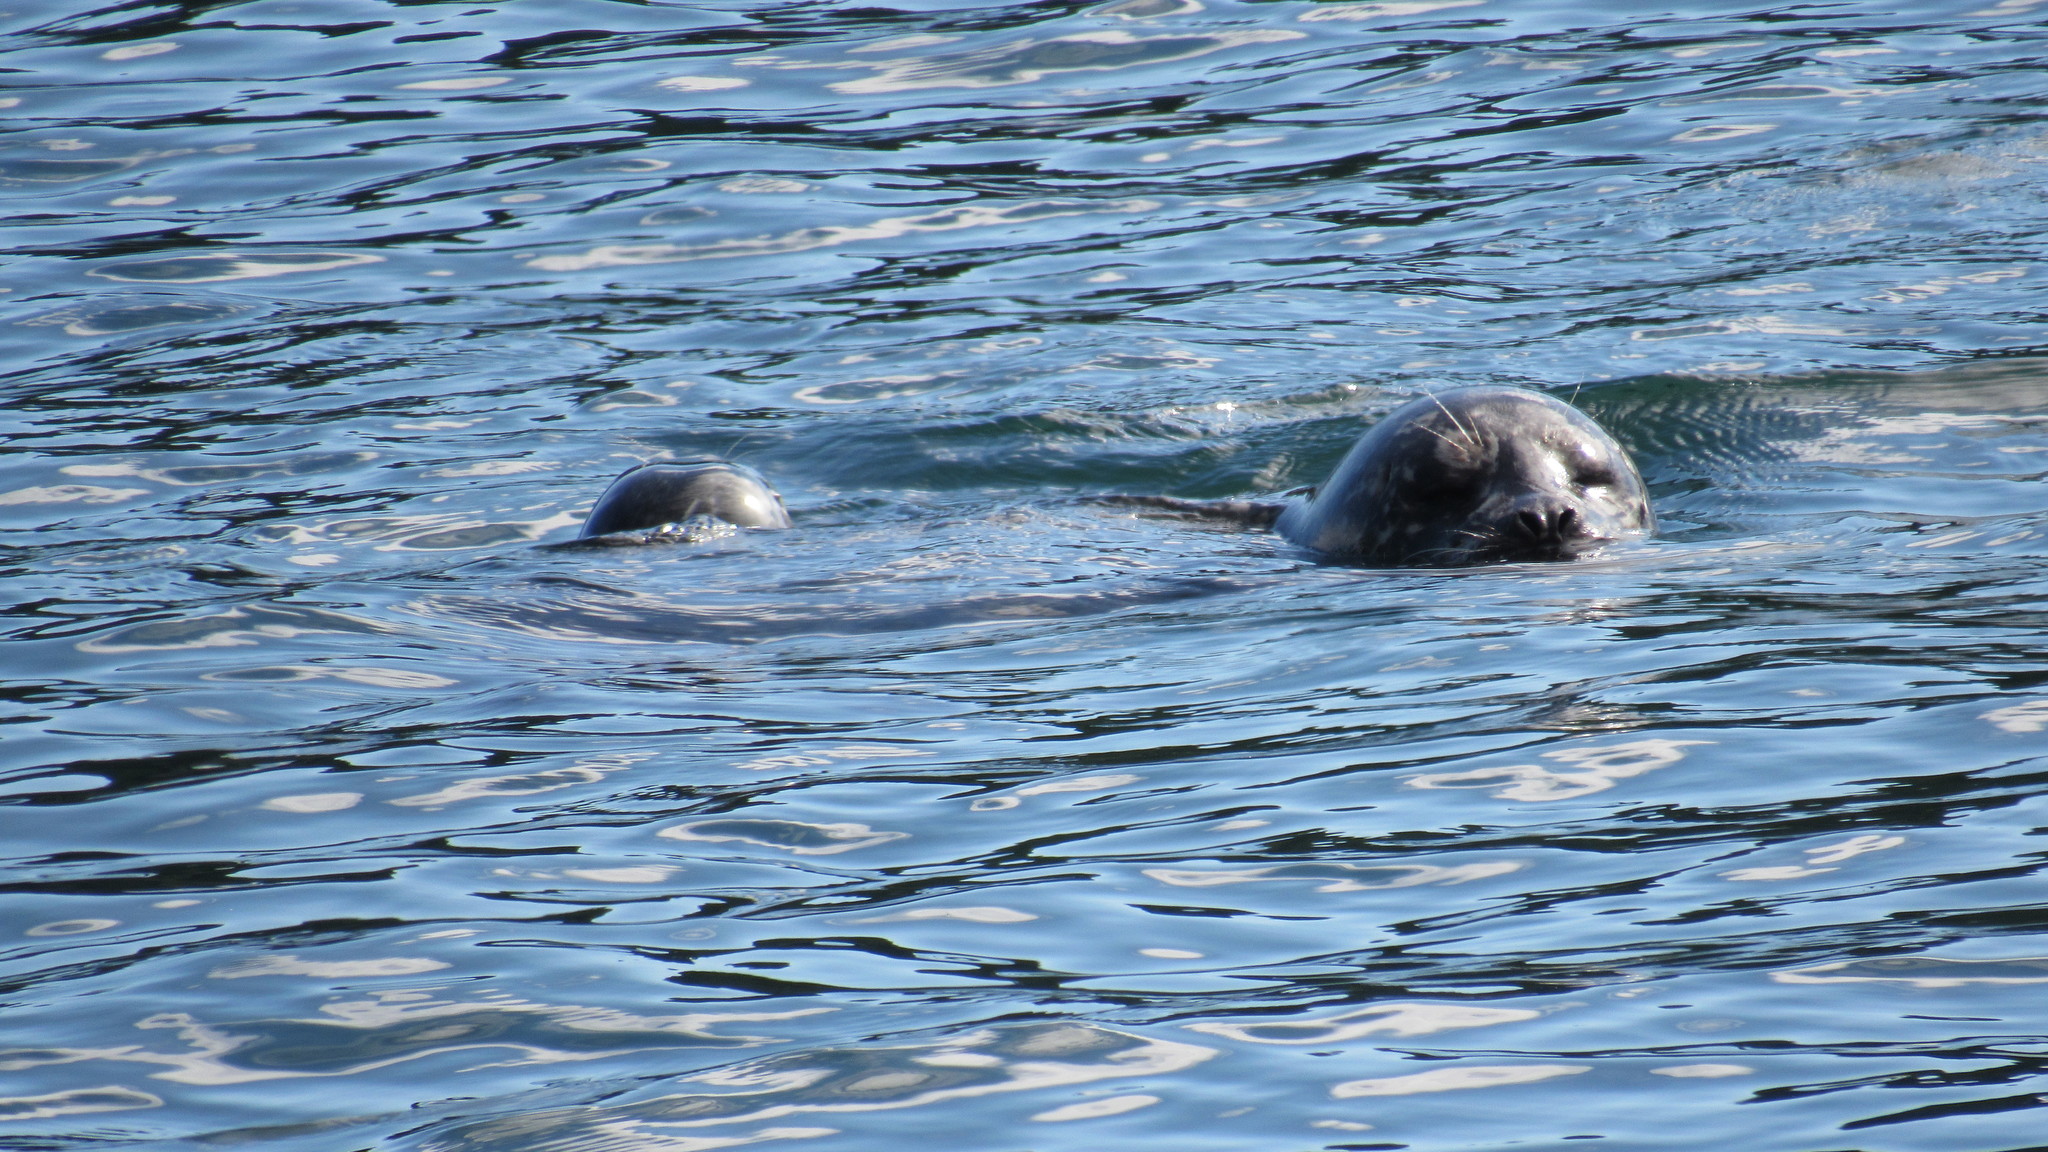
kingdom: Animalia
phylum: Chordata
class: Mammalia
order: Carnivora
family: Phocidae
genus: Phoca
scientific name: Phoca vitulina
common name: Harbor seal
